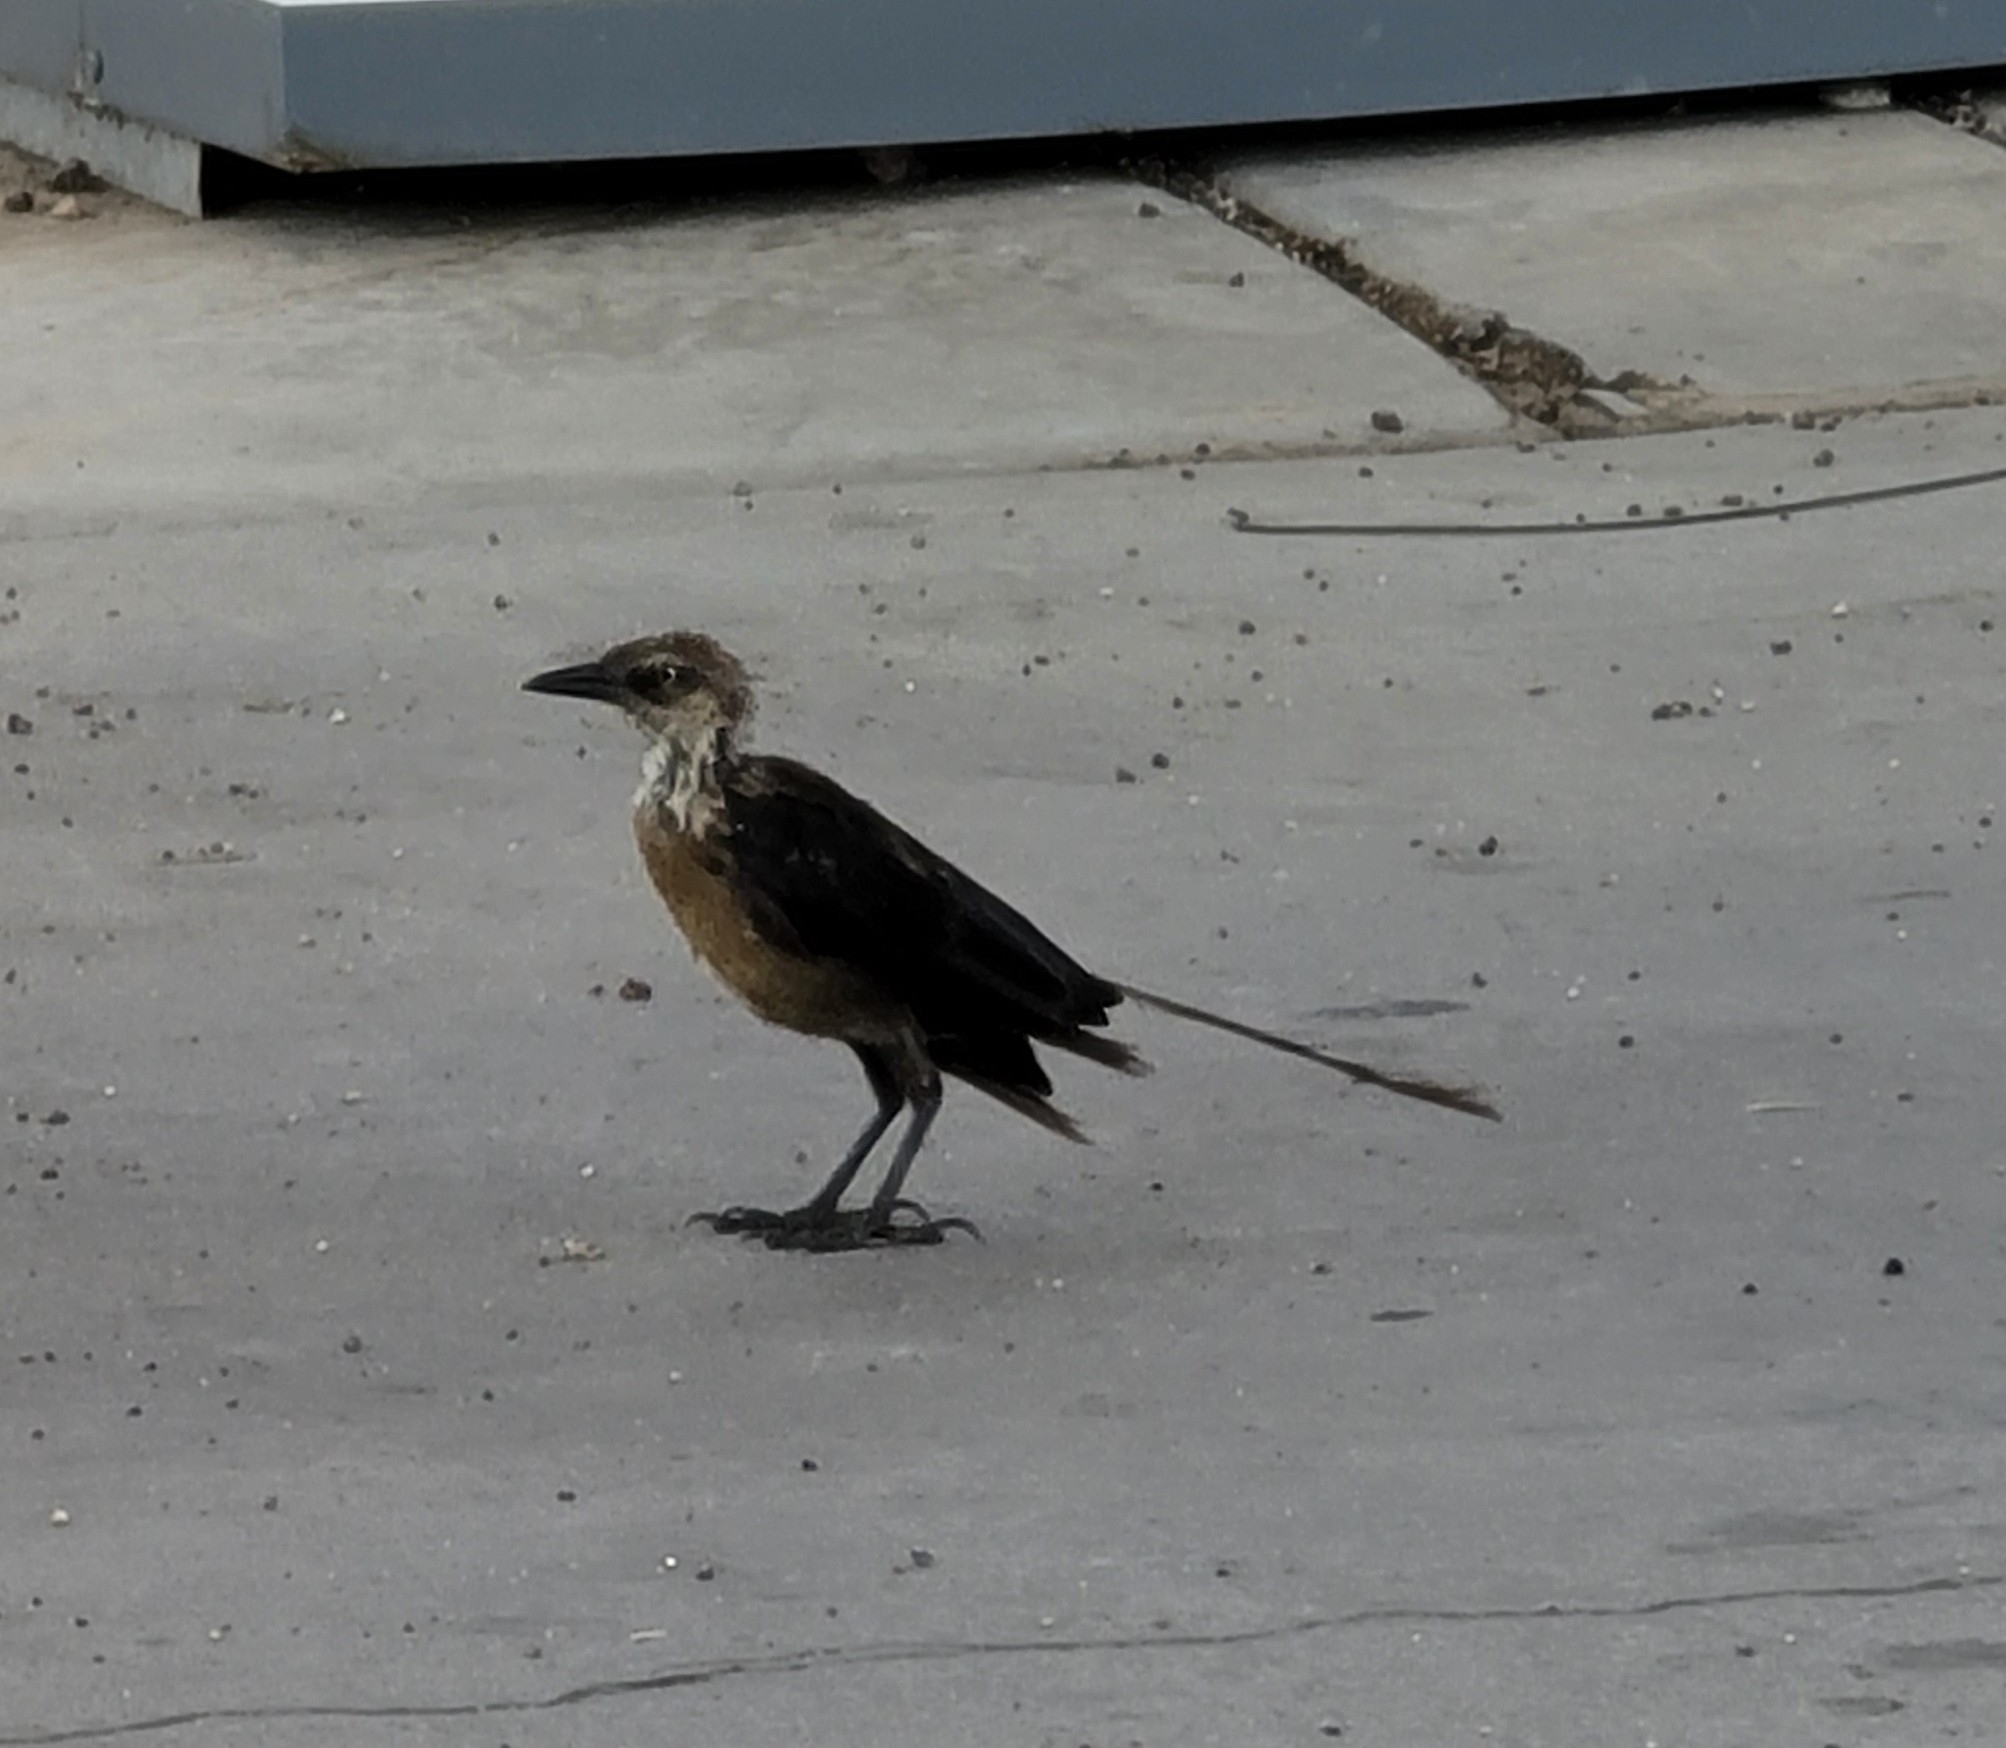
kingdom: Animalia
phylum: Chordata
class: Aves
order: Passeriformes
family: Icteridae
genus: Quiscalus
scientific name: Quiscalus mexicanus
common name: Great-tailed grackle
